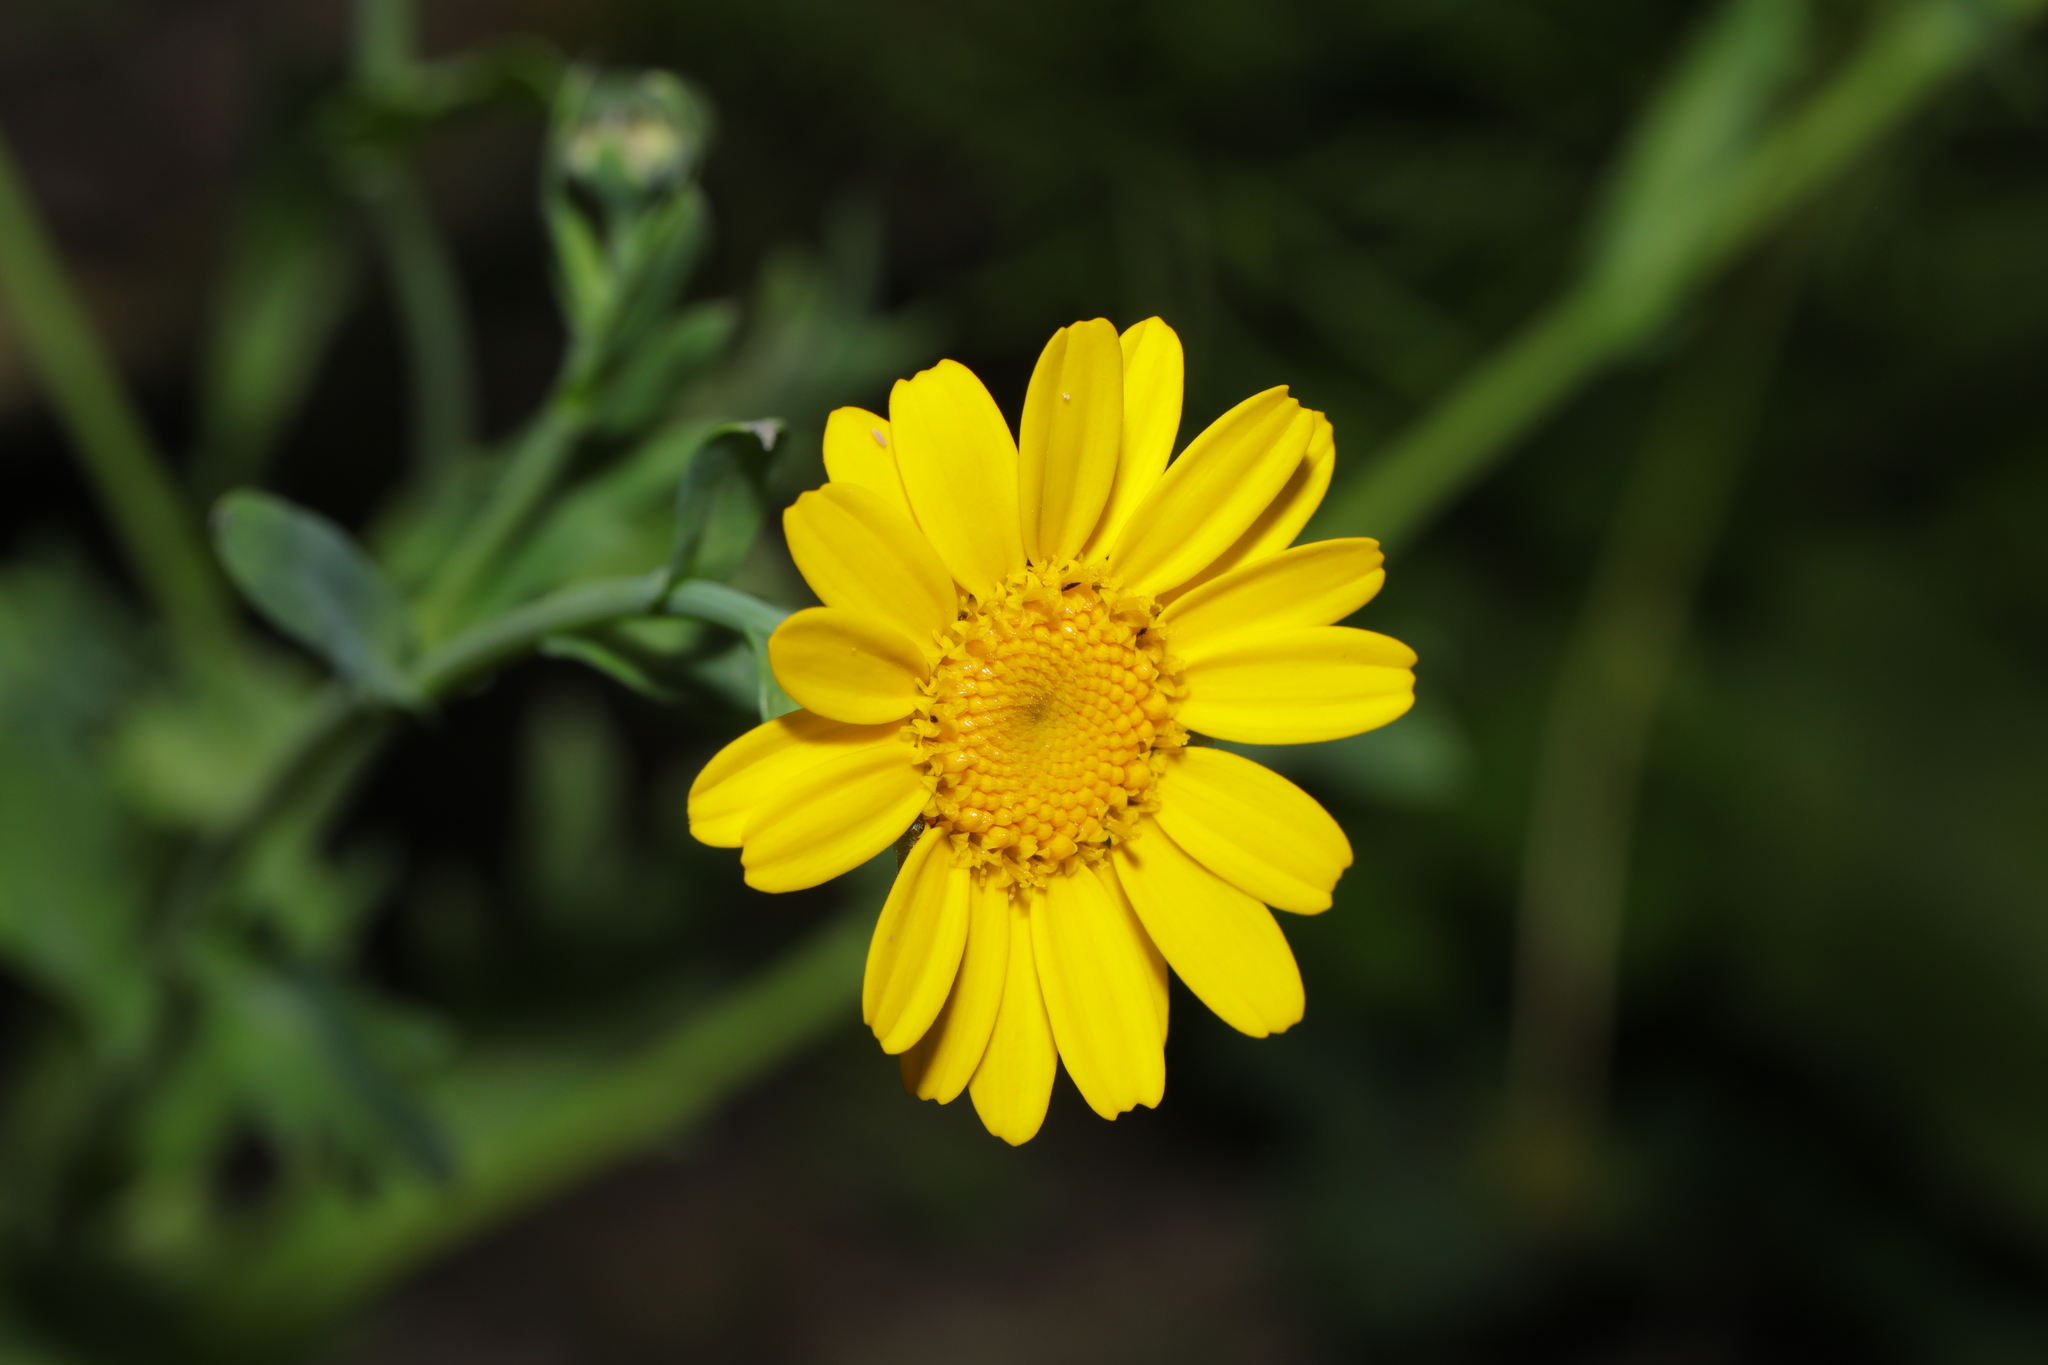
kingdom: Plantae
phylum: Tracheophyta
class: Magnoliopsida
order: Asterales
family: Asteraceae
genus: Glebionis
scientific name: Glebionis segetum
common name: Corndaisy
